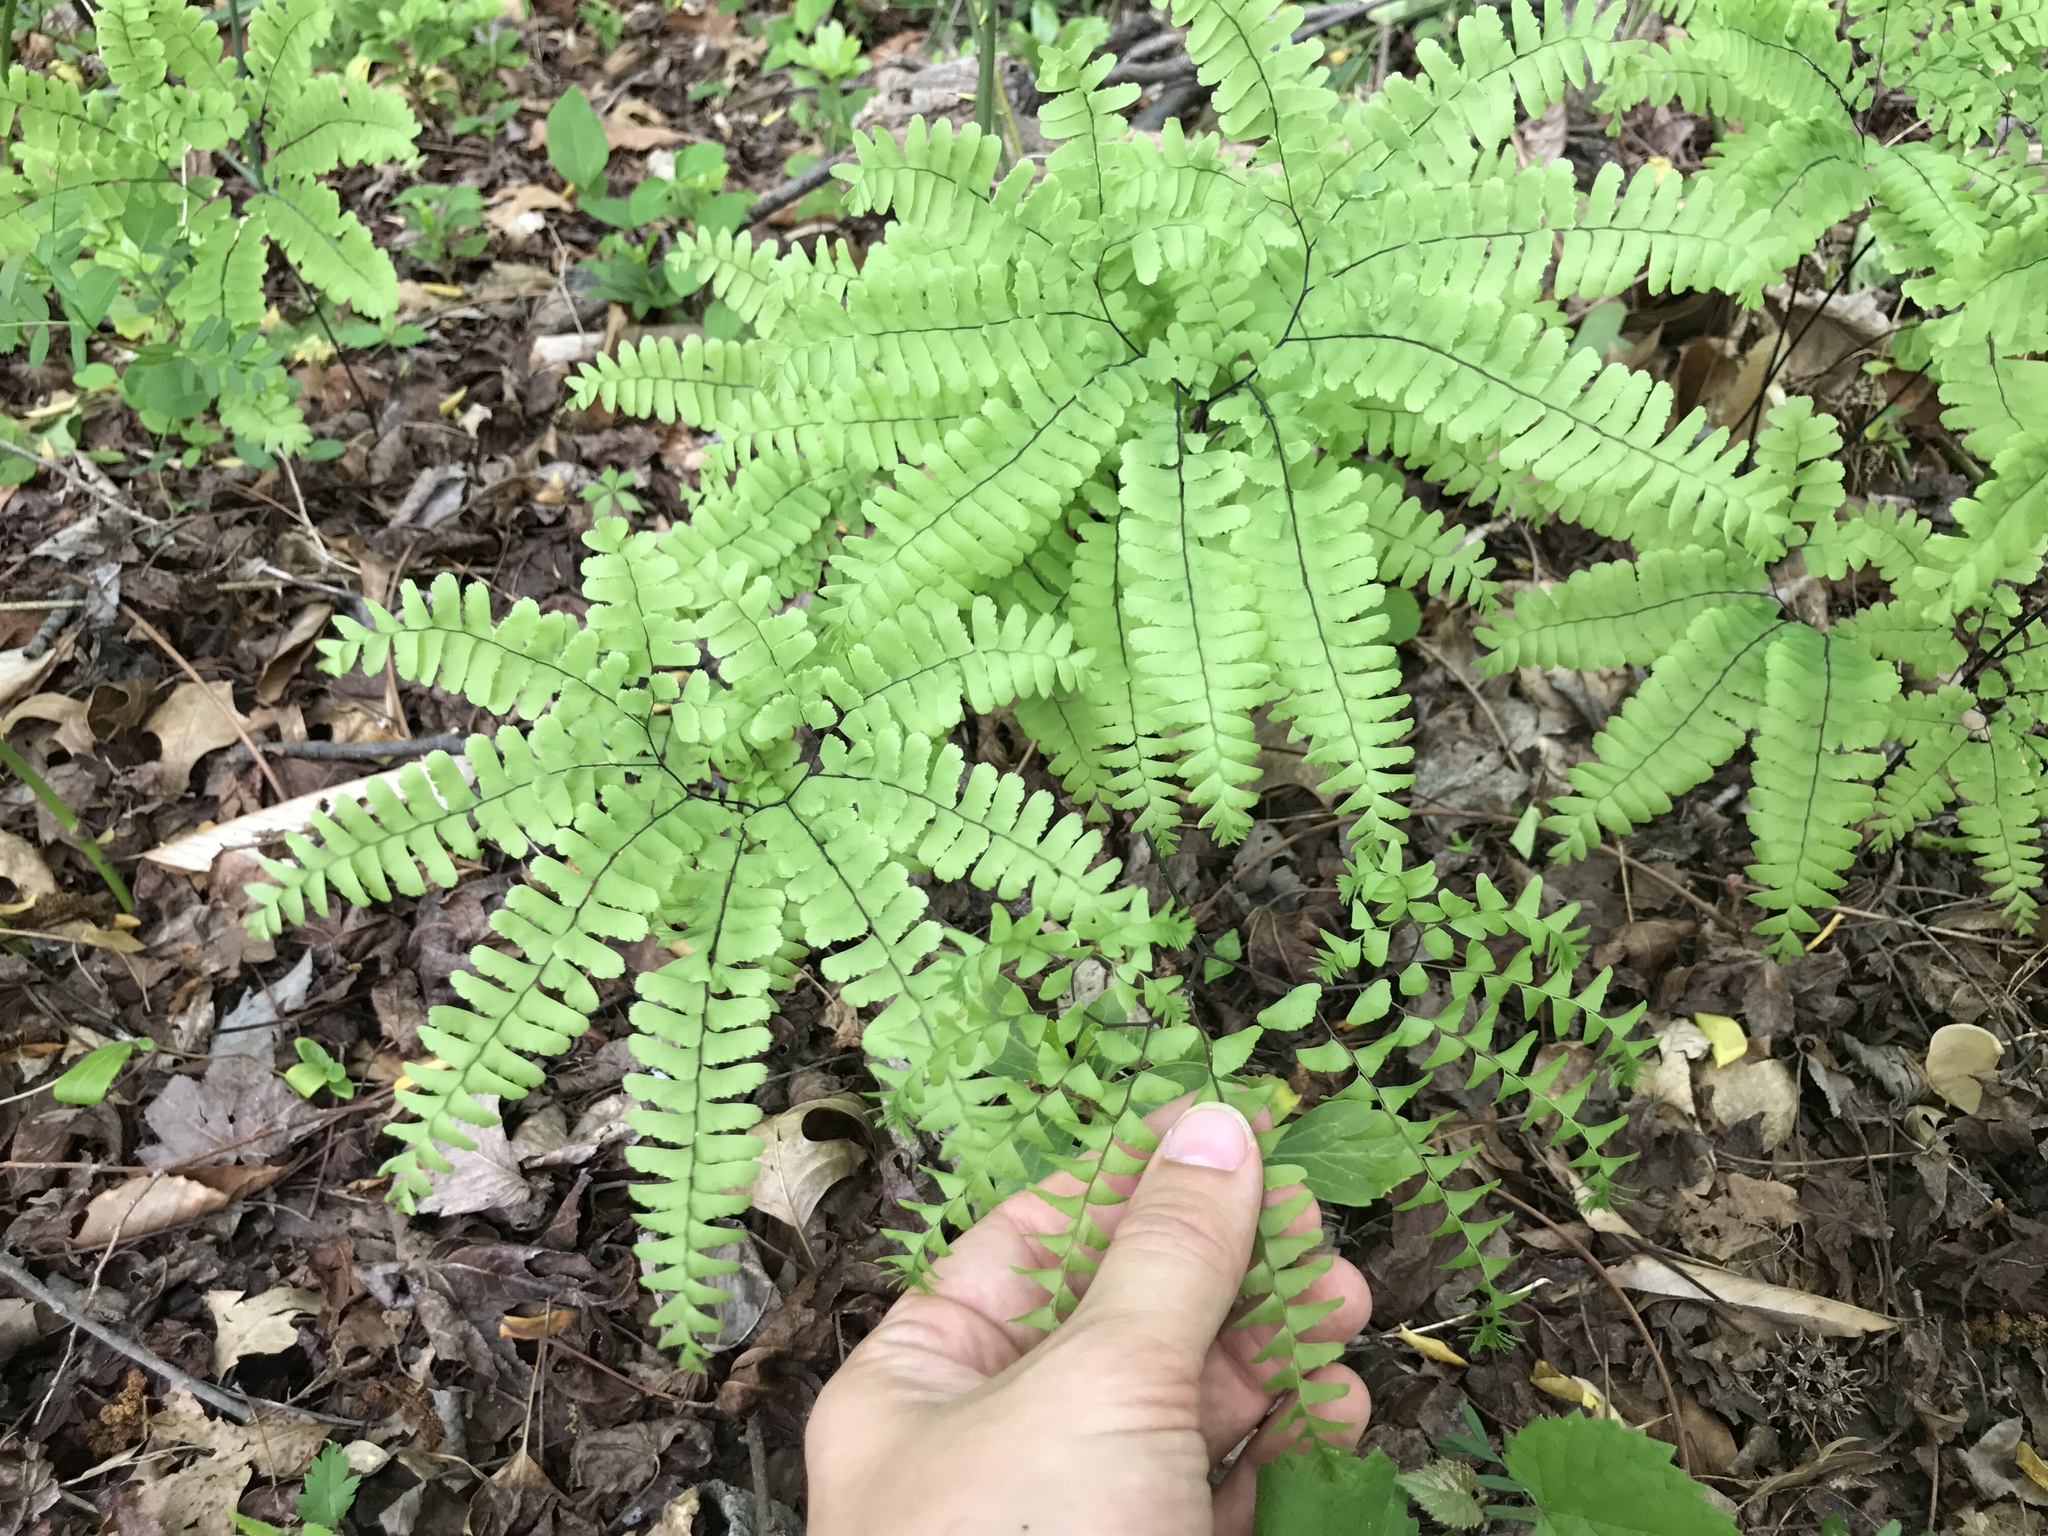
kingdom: Plantae
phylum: Tracheophyta
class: Polypodiopsida
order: Polypodiales
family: Pteridaceae
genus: Adiantum
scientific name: Adiantum pedatum
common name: Five-finger fern
